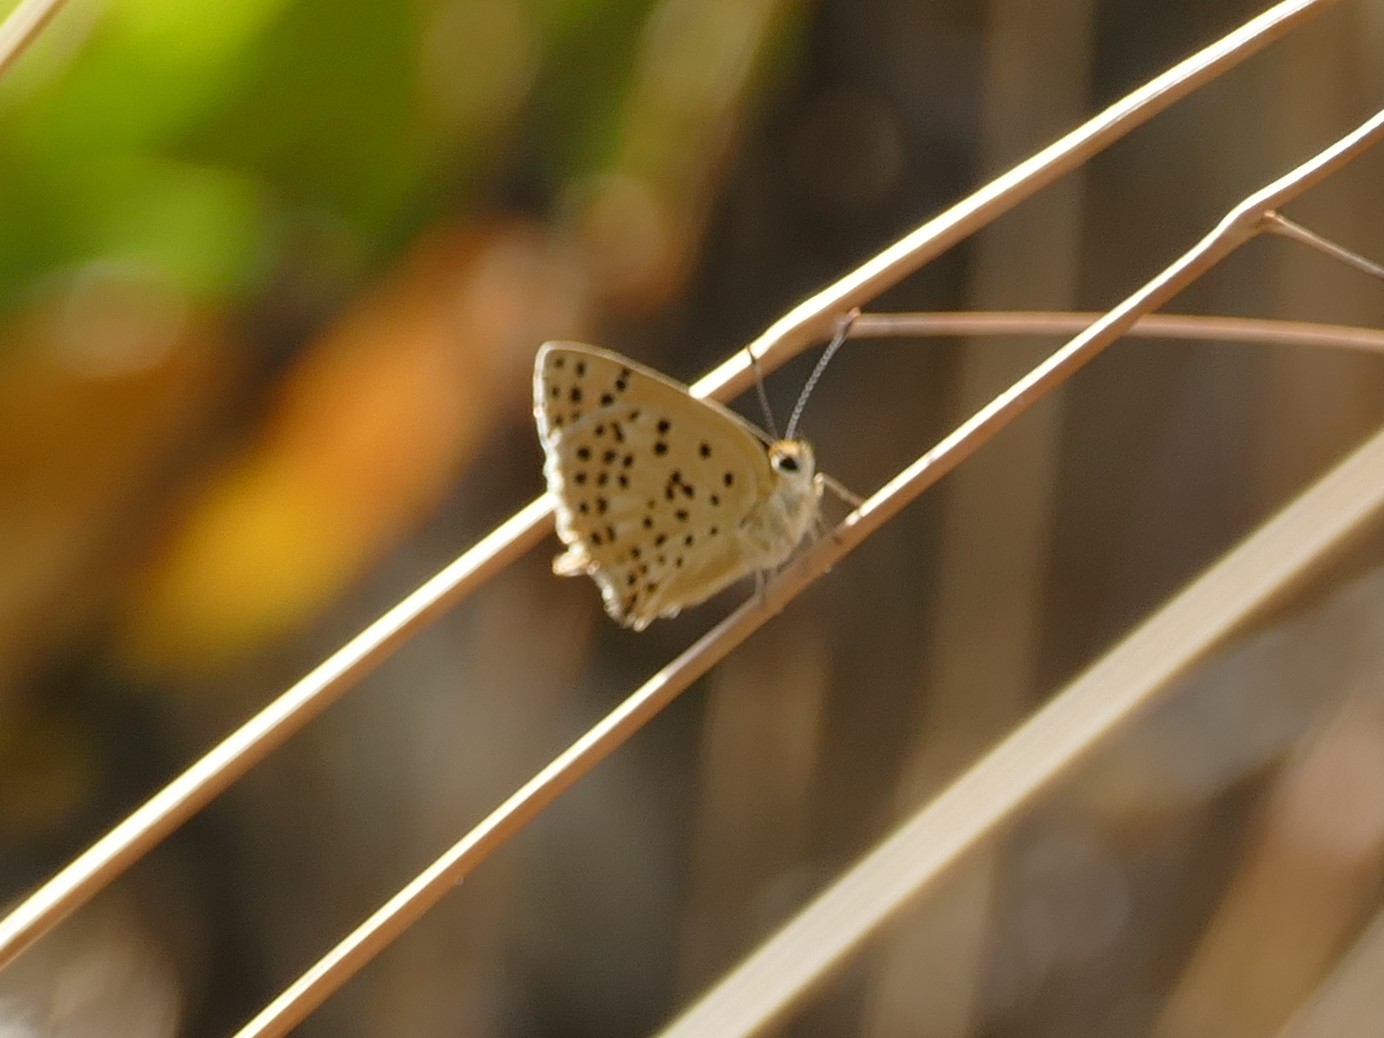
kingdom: Animalia
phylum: Arthropoda
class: Insecta
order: Lepidoptera
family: Lycaenidae
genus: Lycaena
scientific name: Lycaena bleusei
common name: Iberian sooty copper
